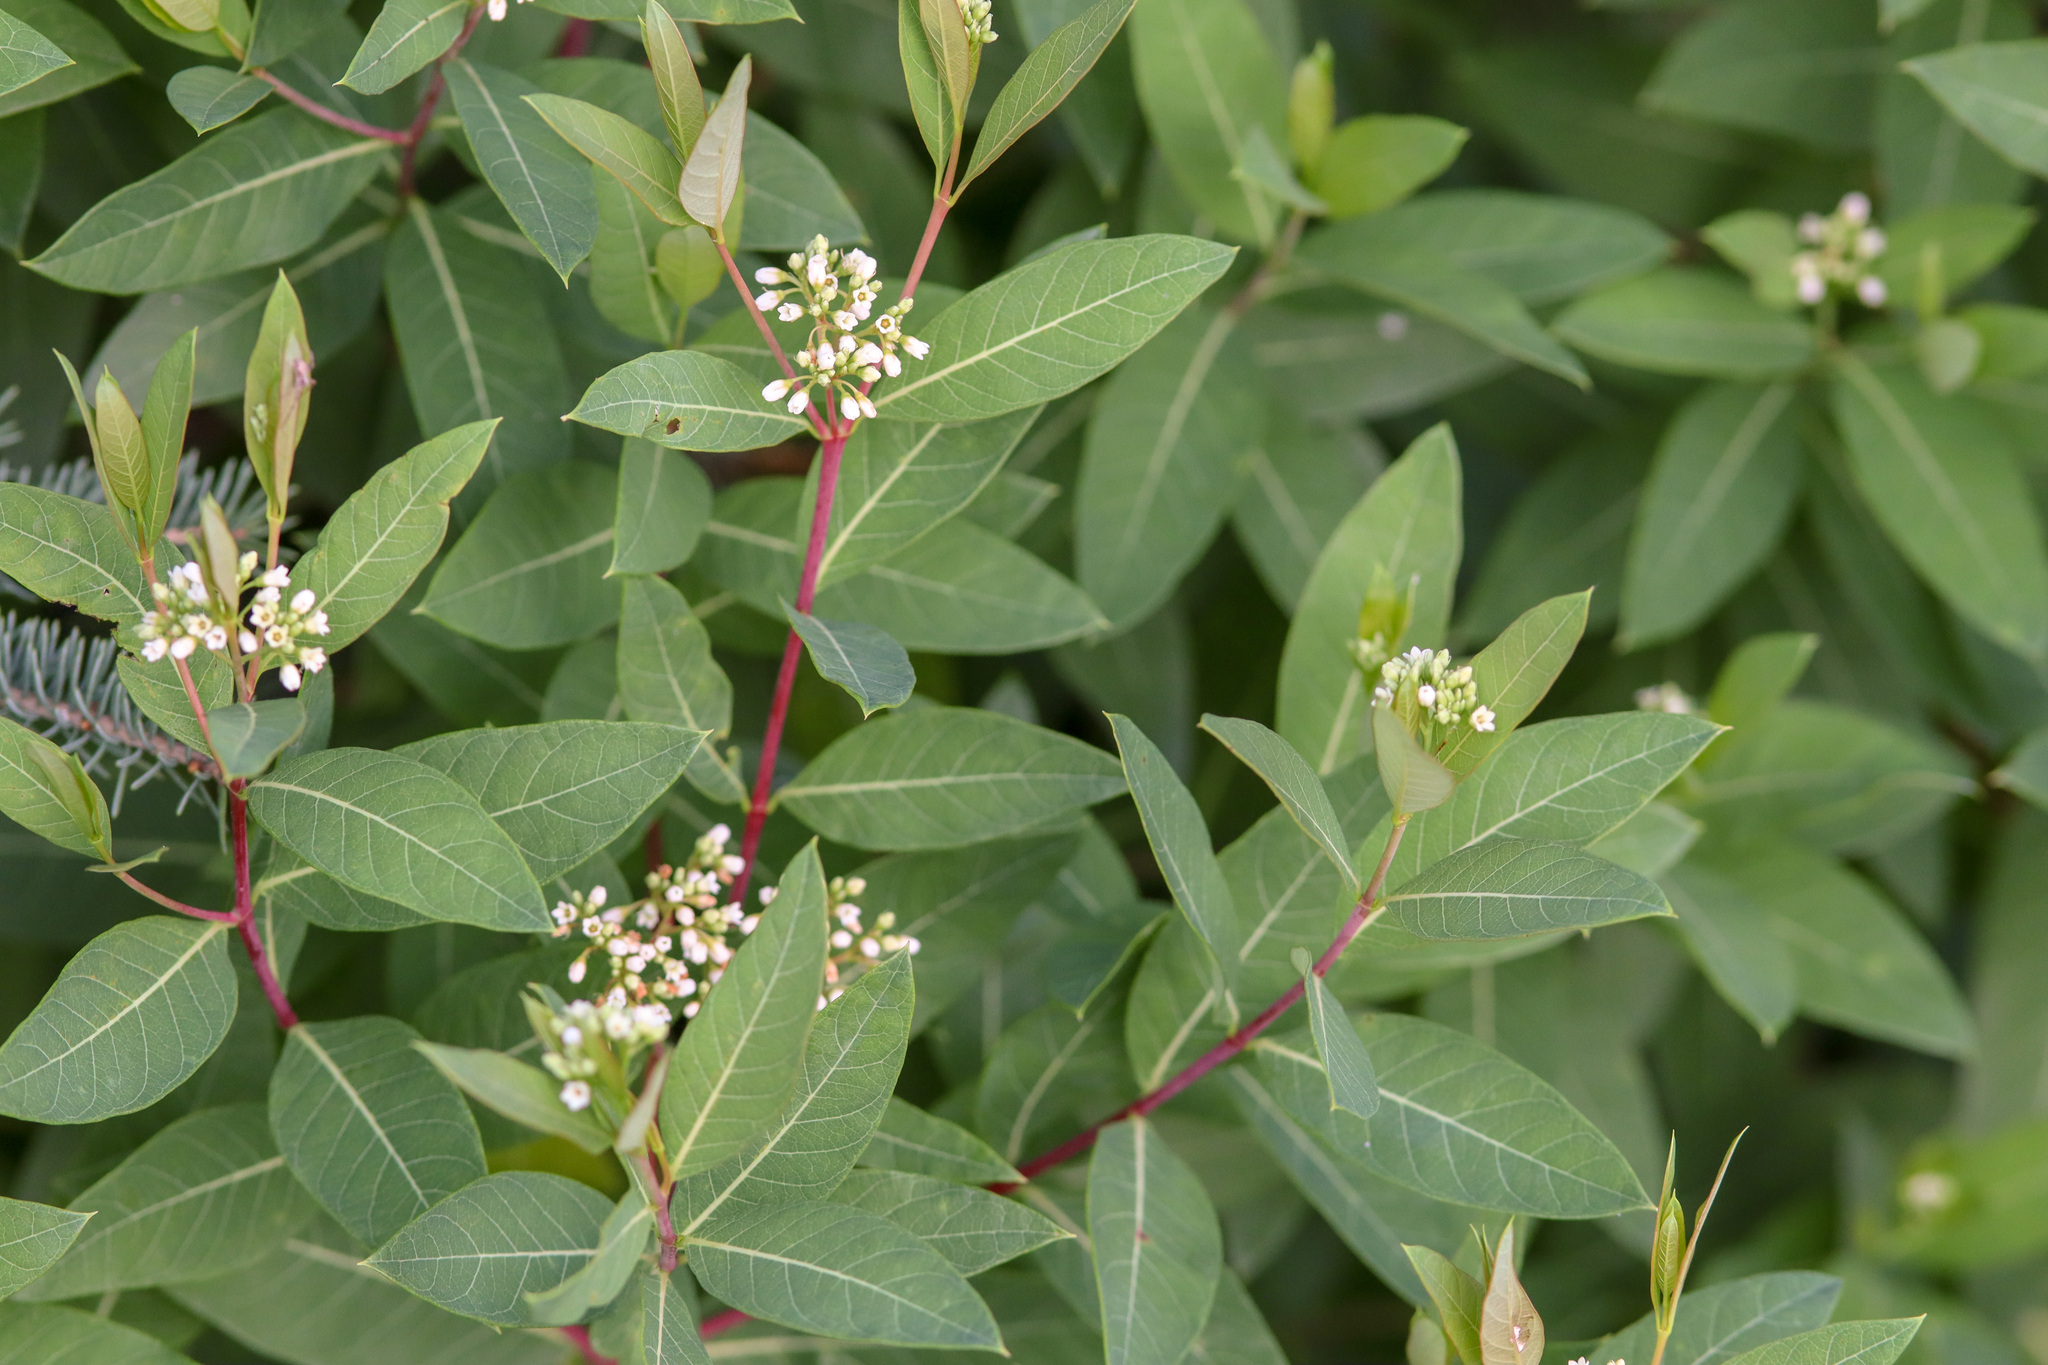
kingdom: Plantae
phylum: Tracheophyta
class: Magnoliopsida
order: Gentianales
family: Apocynaceae
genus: Apocynum
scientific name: Apocynum cannabinum
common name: Hemp dogbane
